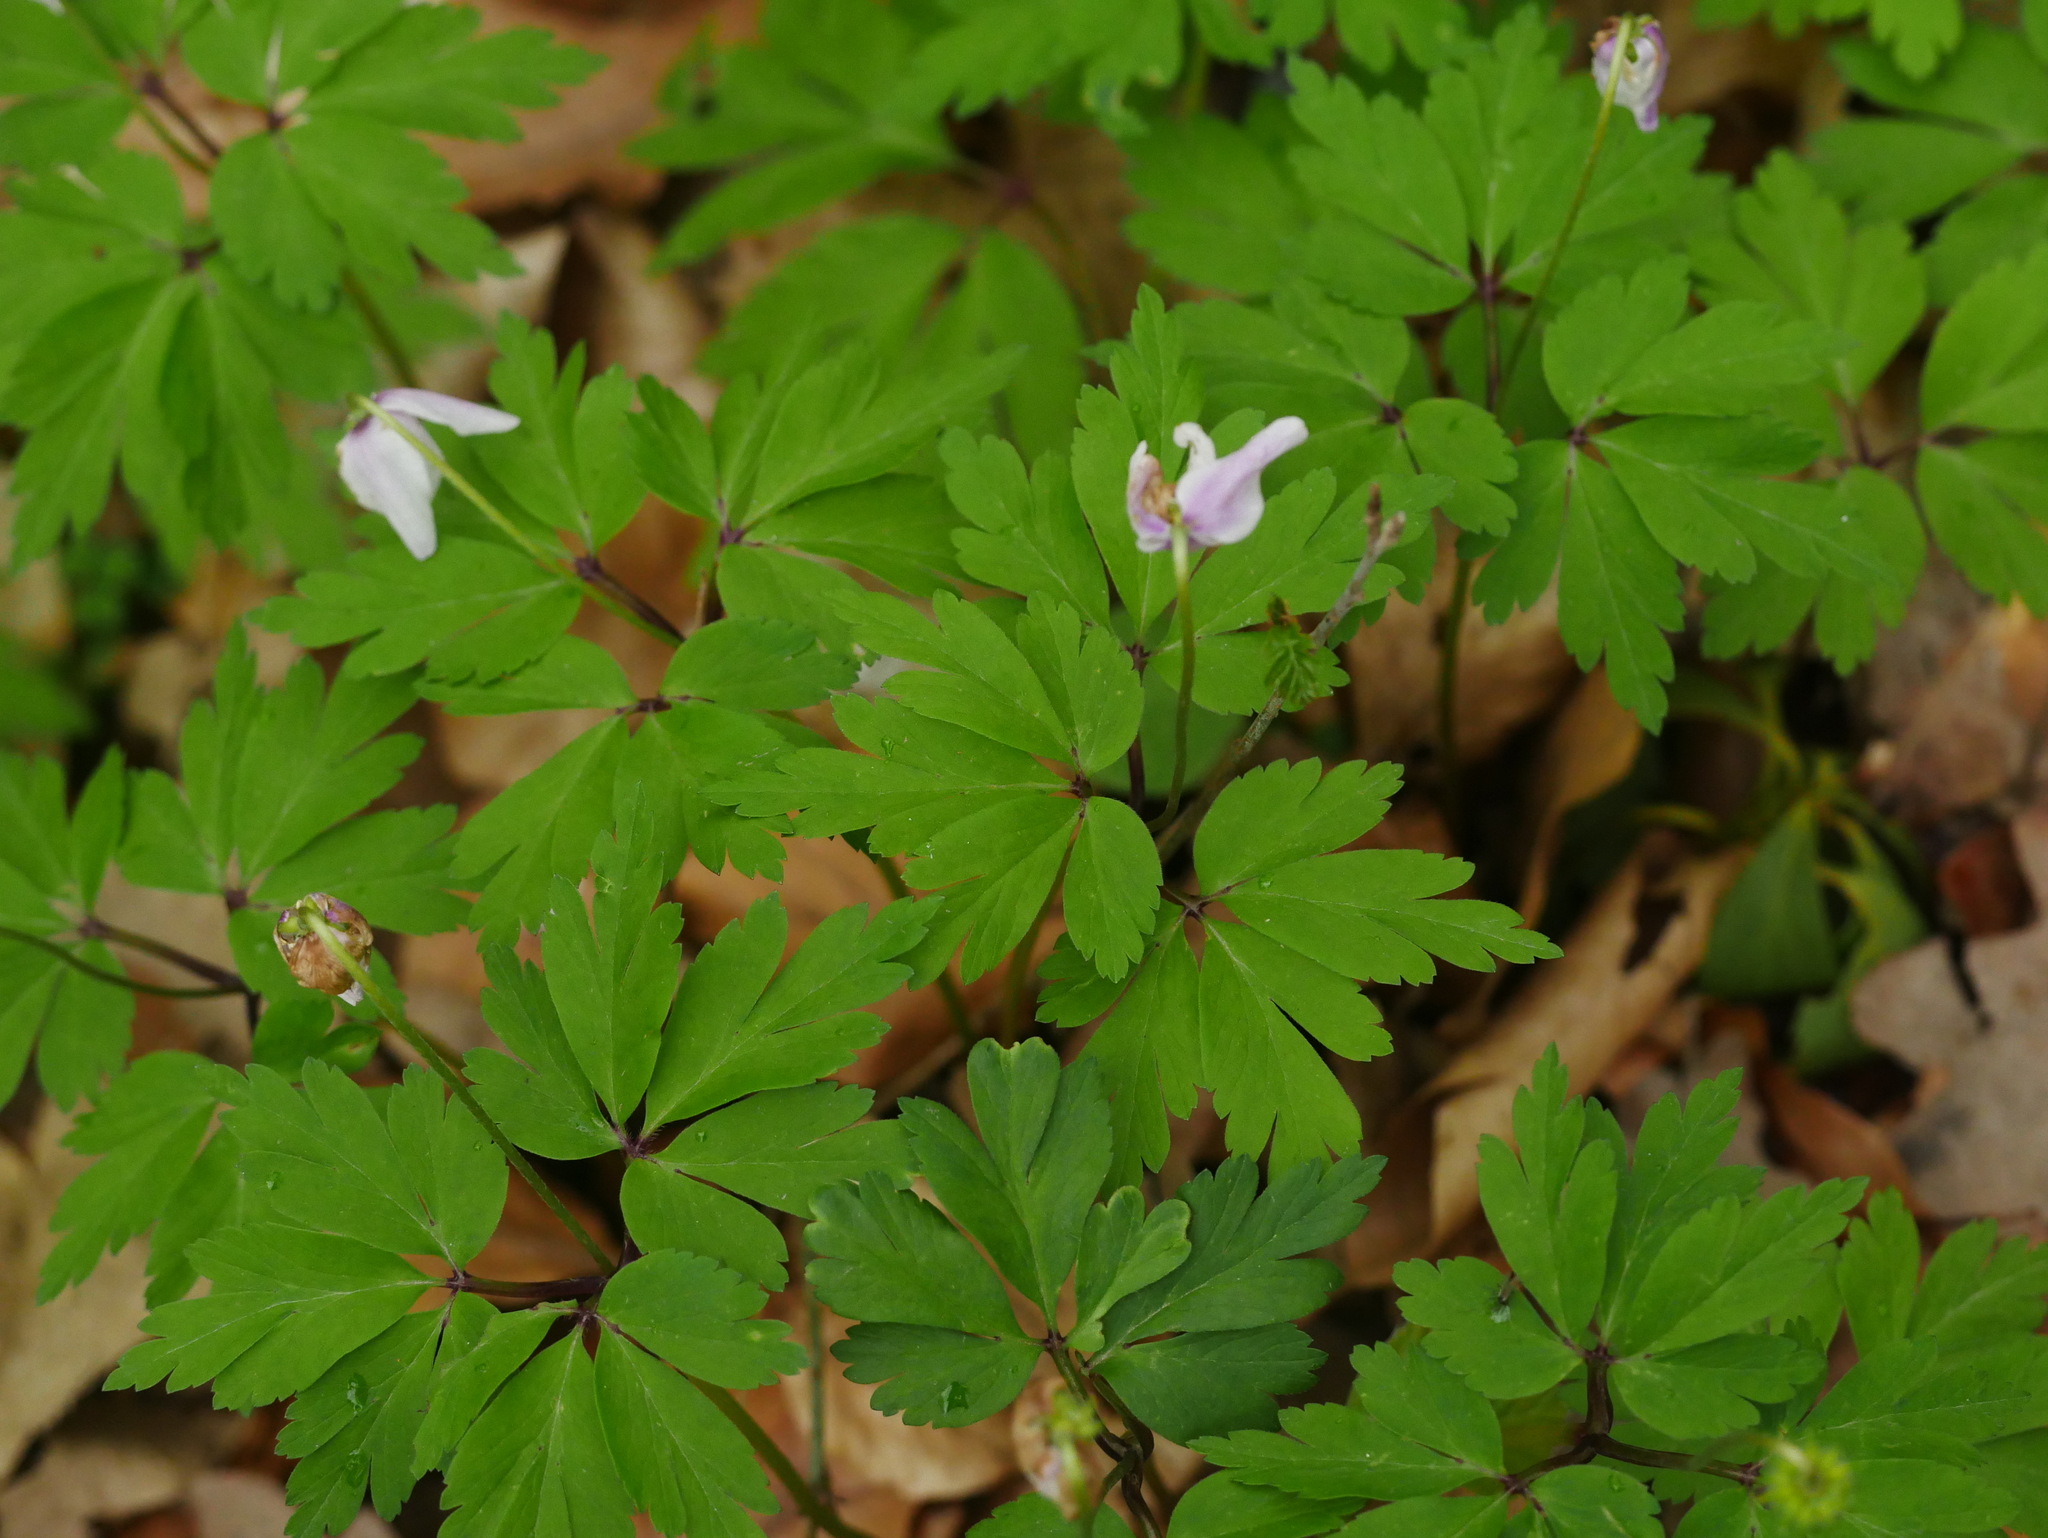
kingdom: Plantae
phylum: Tracheophyta
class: Magnoliopsida
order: Ranunculales
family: Ranunculaceae
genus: Anemone
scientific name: Anemone nemorosa
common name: Wood anemone
